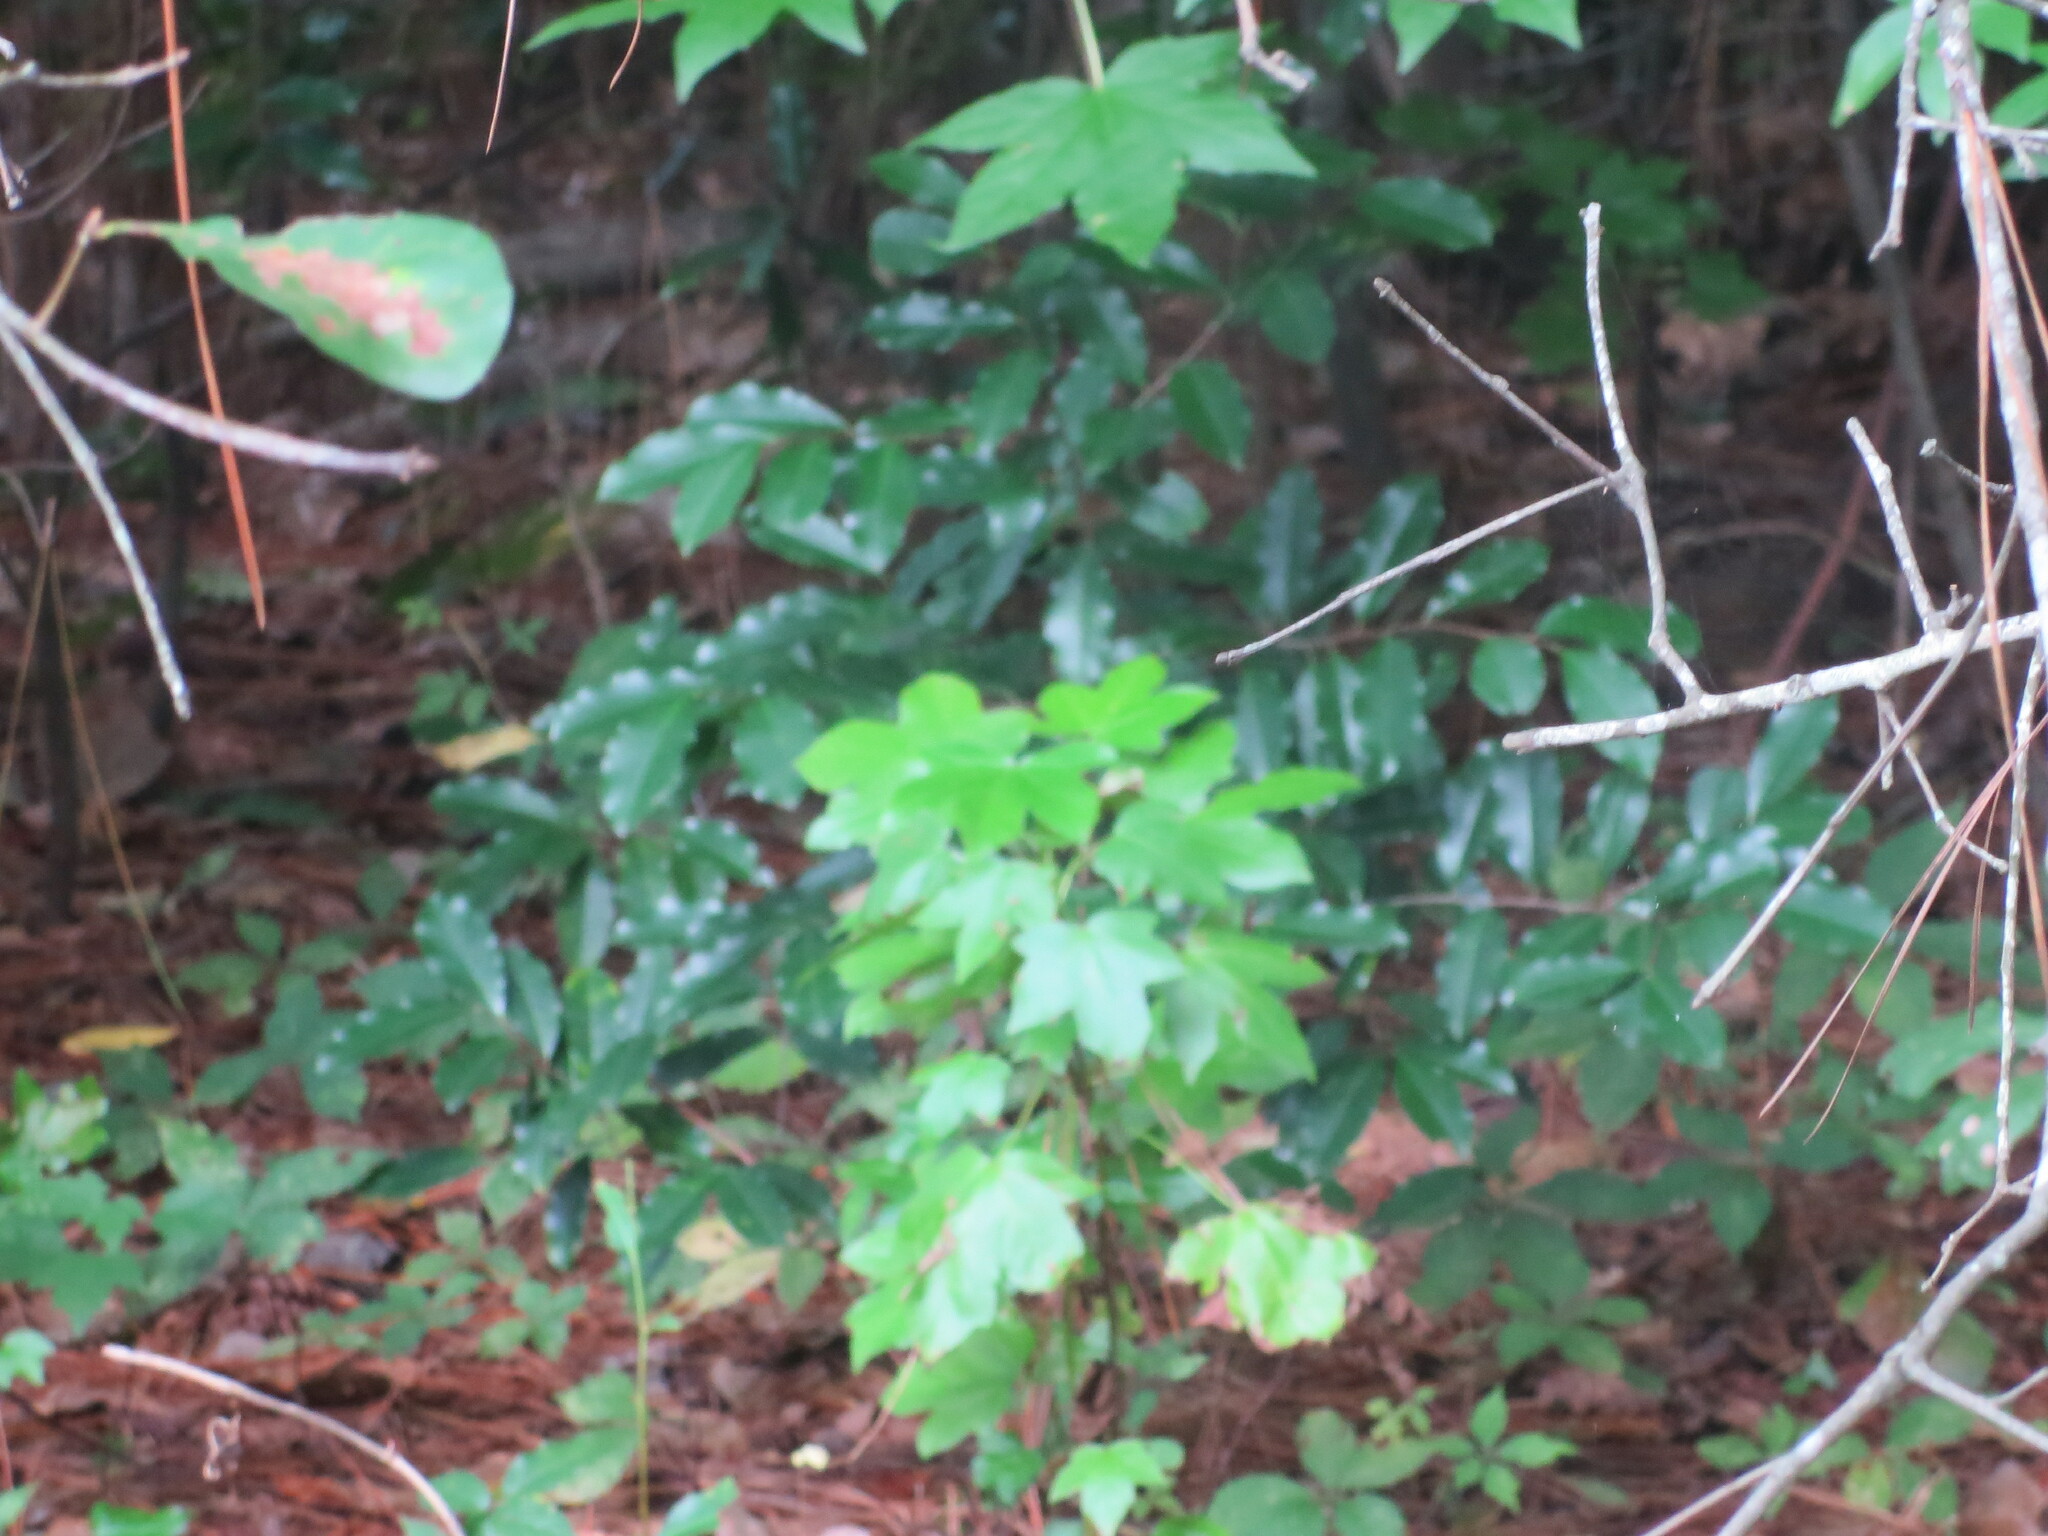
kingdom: Plantae
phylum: Tracheophyta
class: Magnoliopsida
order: Saxifragales
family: Altingiaceae
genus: Liquidambar
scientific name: Liquidambar styraciflua
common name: Sweet gum
